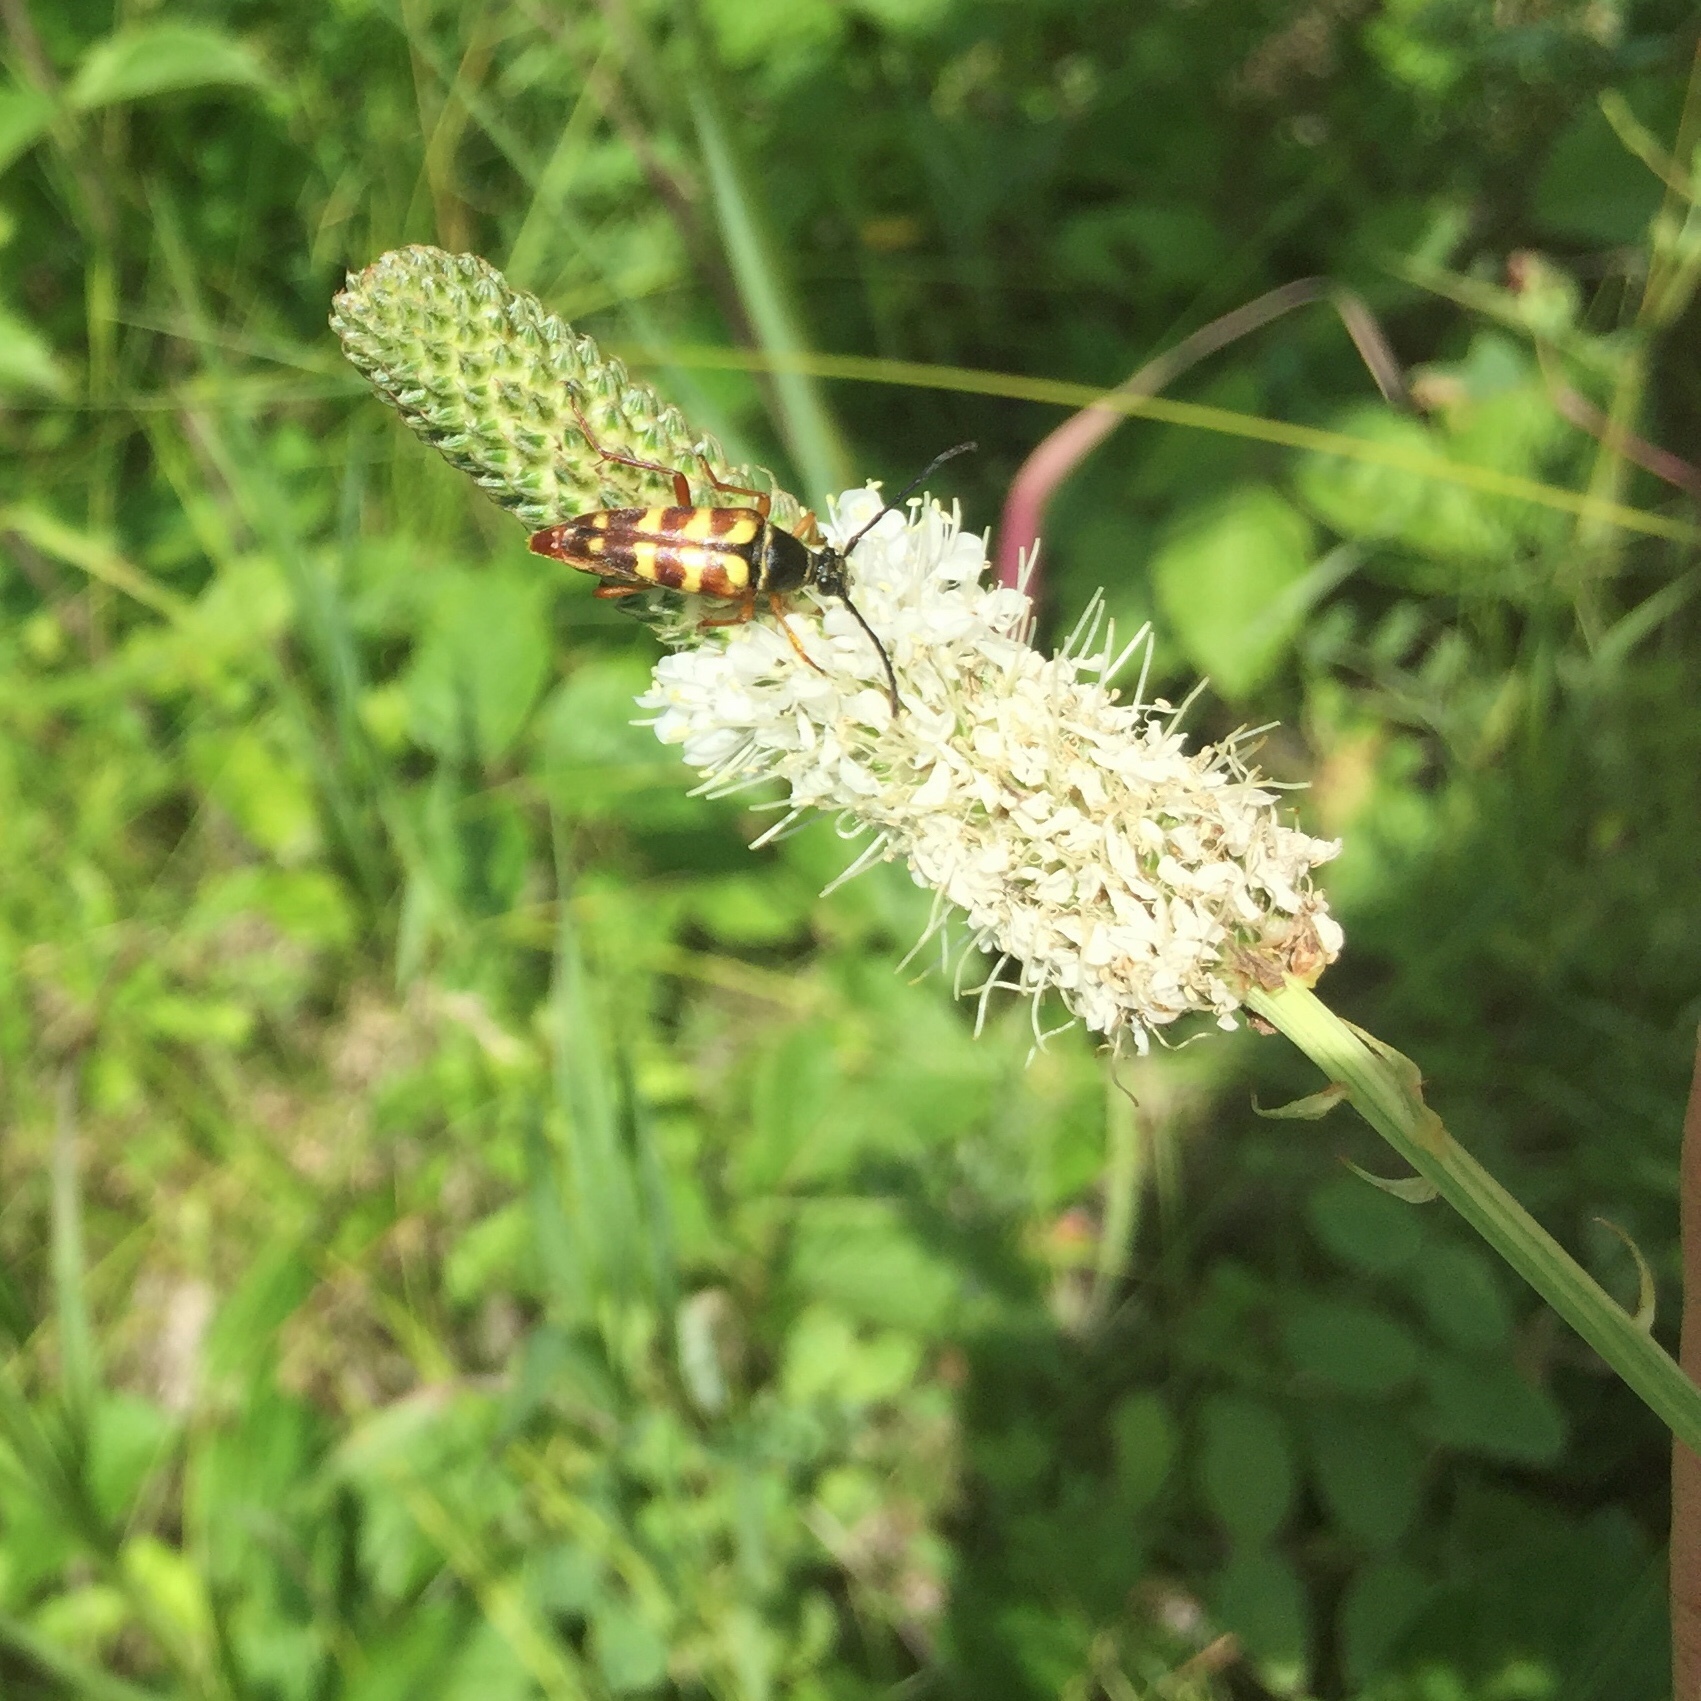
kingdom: Plantae
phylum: Tracheophyta
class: Magnoliopsida
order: Fabales
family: Fabaceae
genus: Dalea
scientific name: Dalea candida
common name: White prairie-clover
